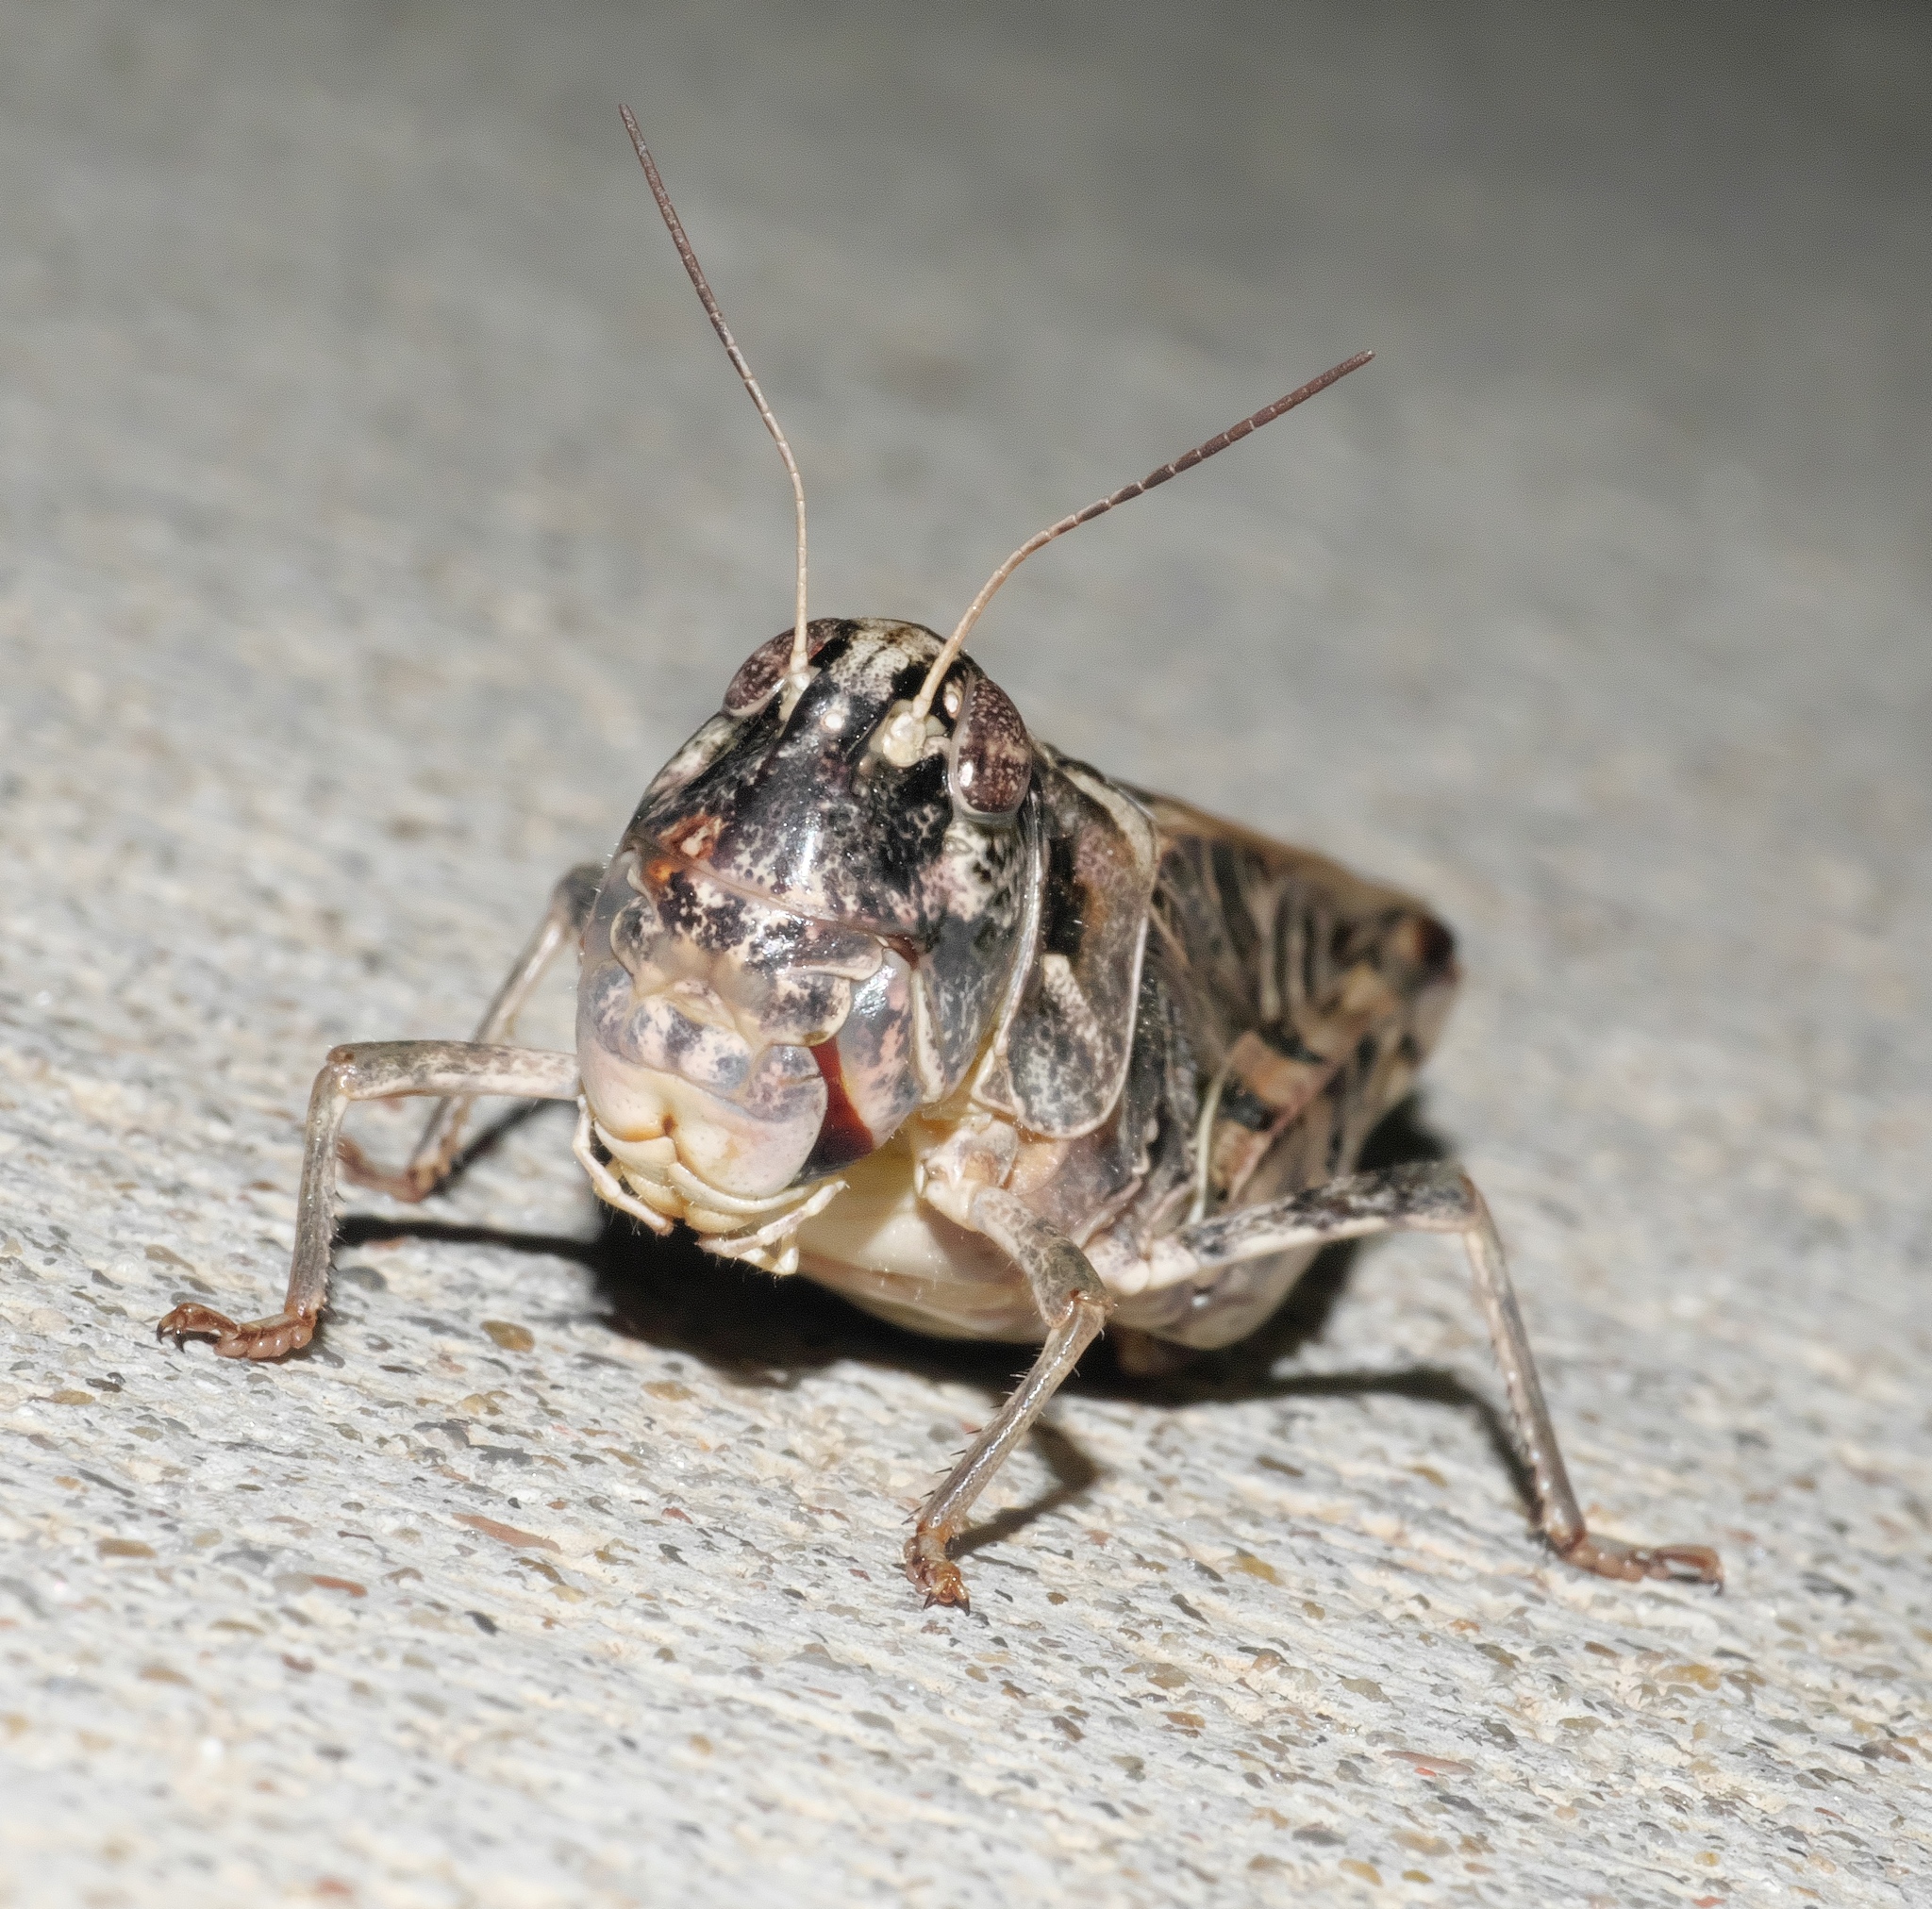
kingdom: Animalia
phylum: Arthropoda
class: Insecta
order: Orthoptera
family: Acrididae
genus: Hippiscus
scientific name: Hippiscus ocelote
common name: Wrinkled grasshopper
